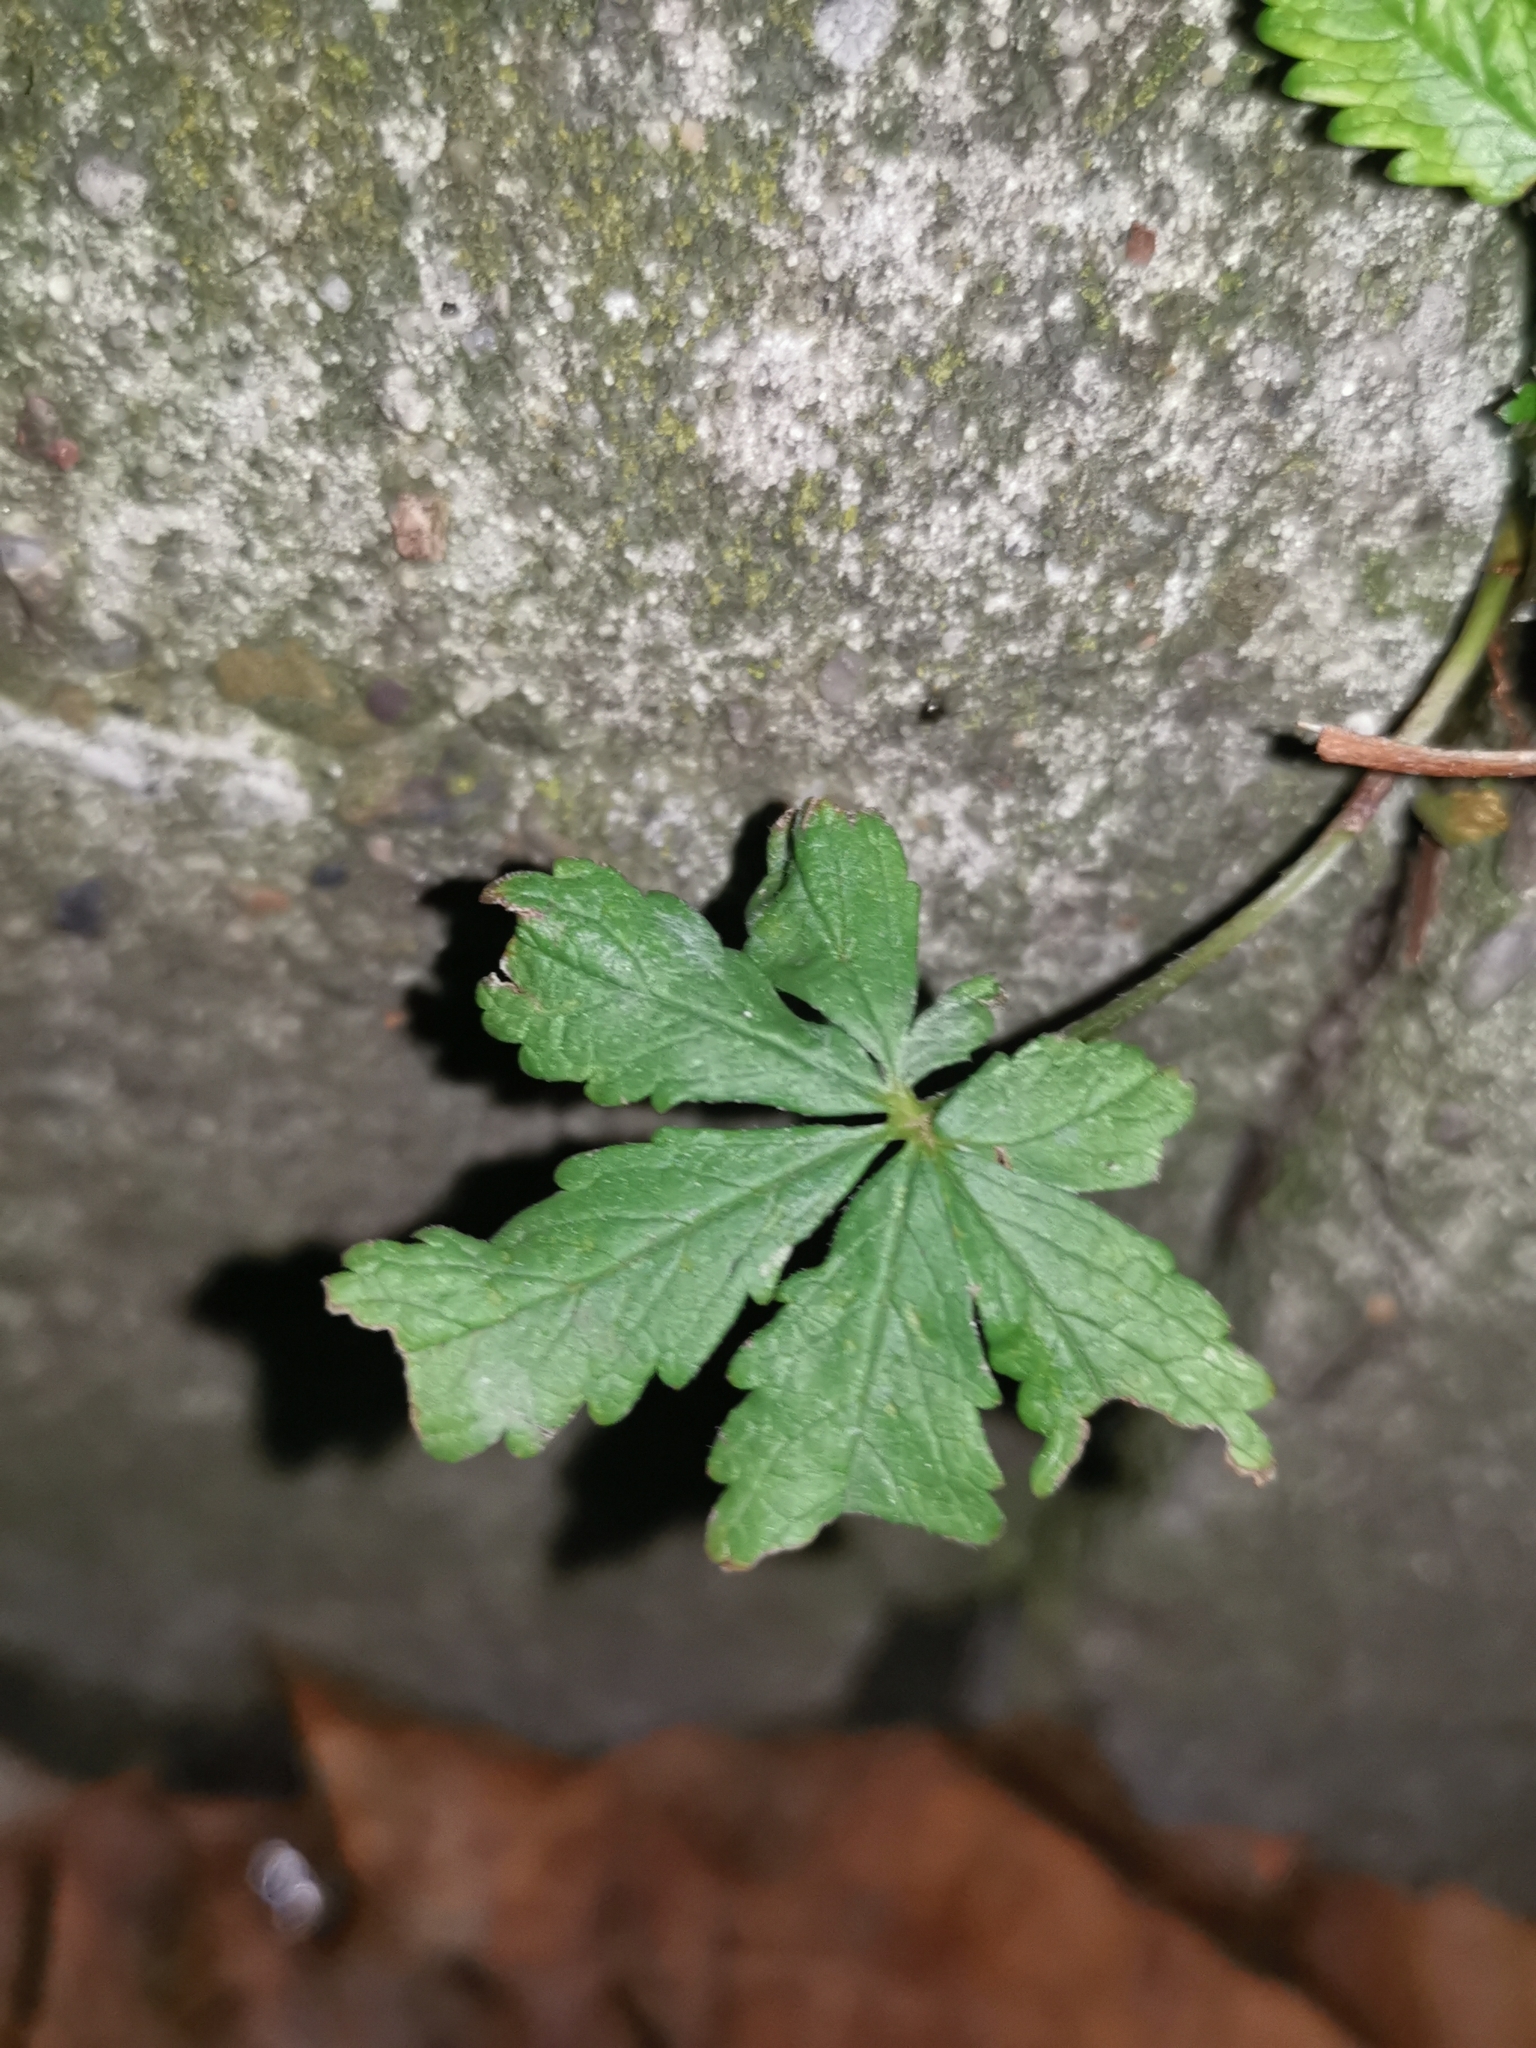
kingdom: Plantae
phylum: Tracheophyta
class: Magnoliopsida
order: Rosales
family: Rosaceae
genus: Potentilla
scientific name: Potentilla reptans
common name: Creeping cinquefoil
